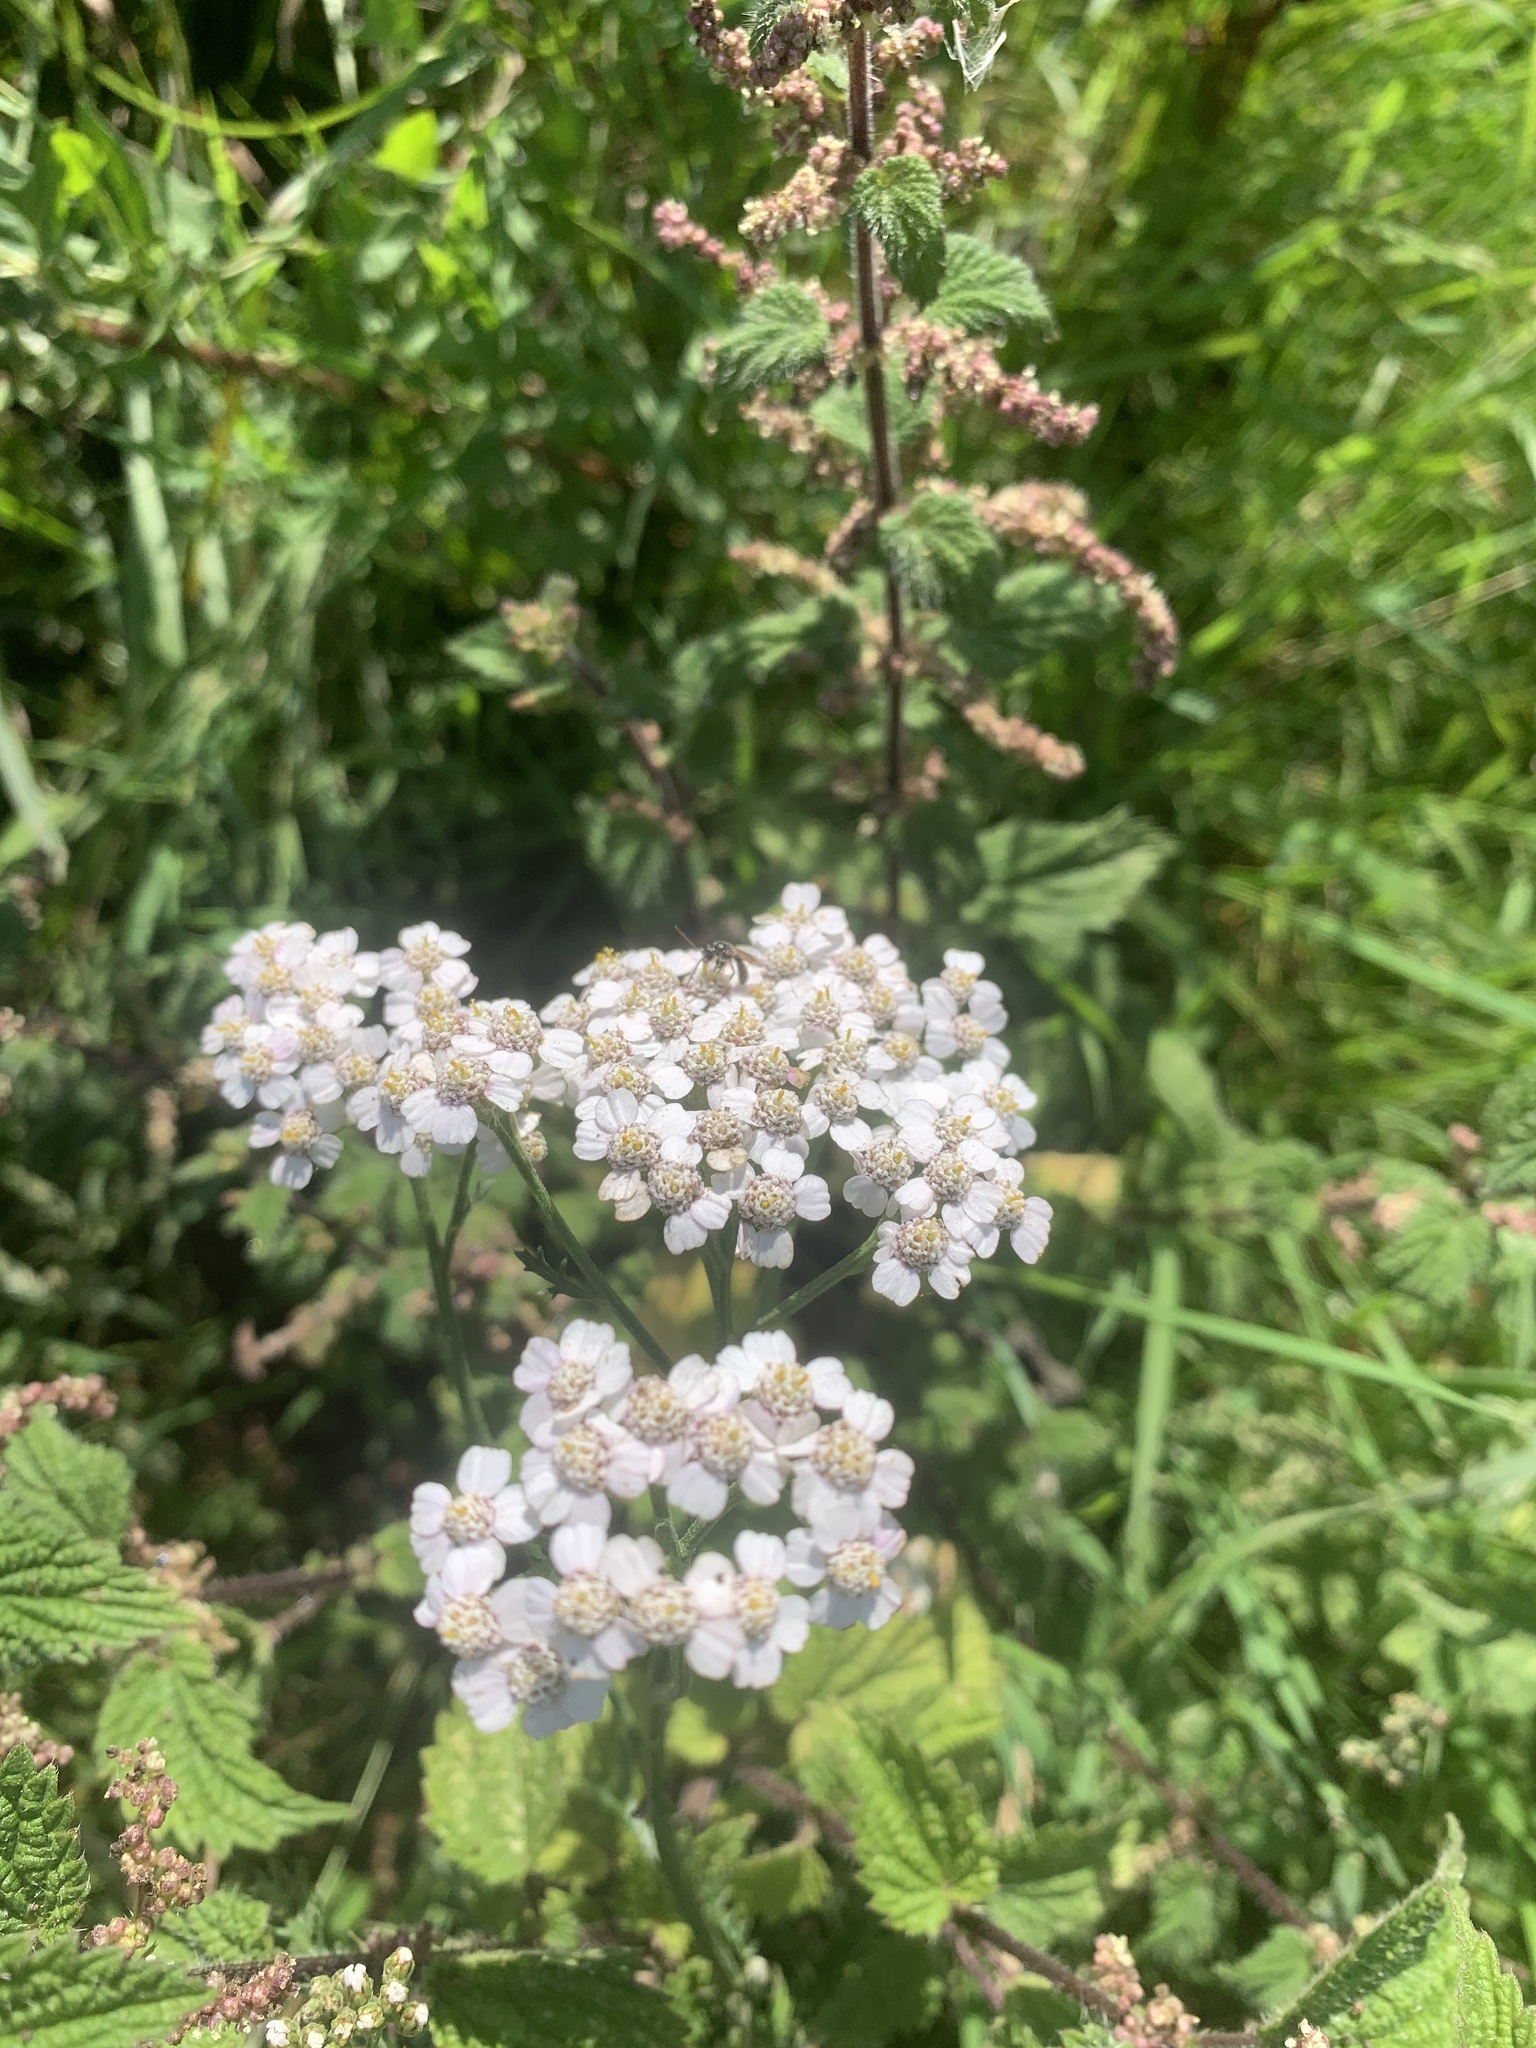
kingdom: Plantae
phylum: Tracheophyta
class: Magnoliopsida
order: Asterales
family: Asteraceae
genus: Achillea
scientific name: Achillea millefolium
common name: Yarrow
